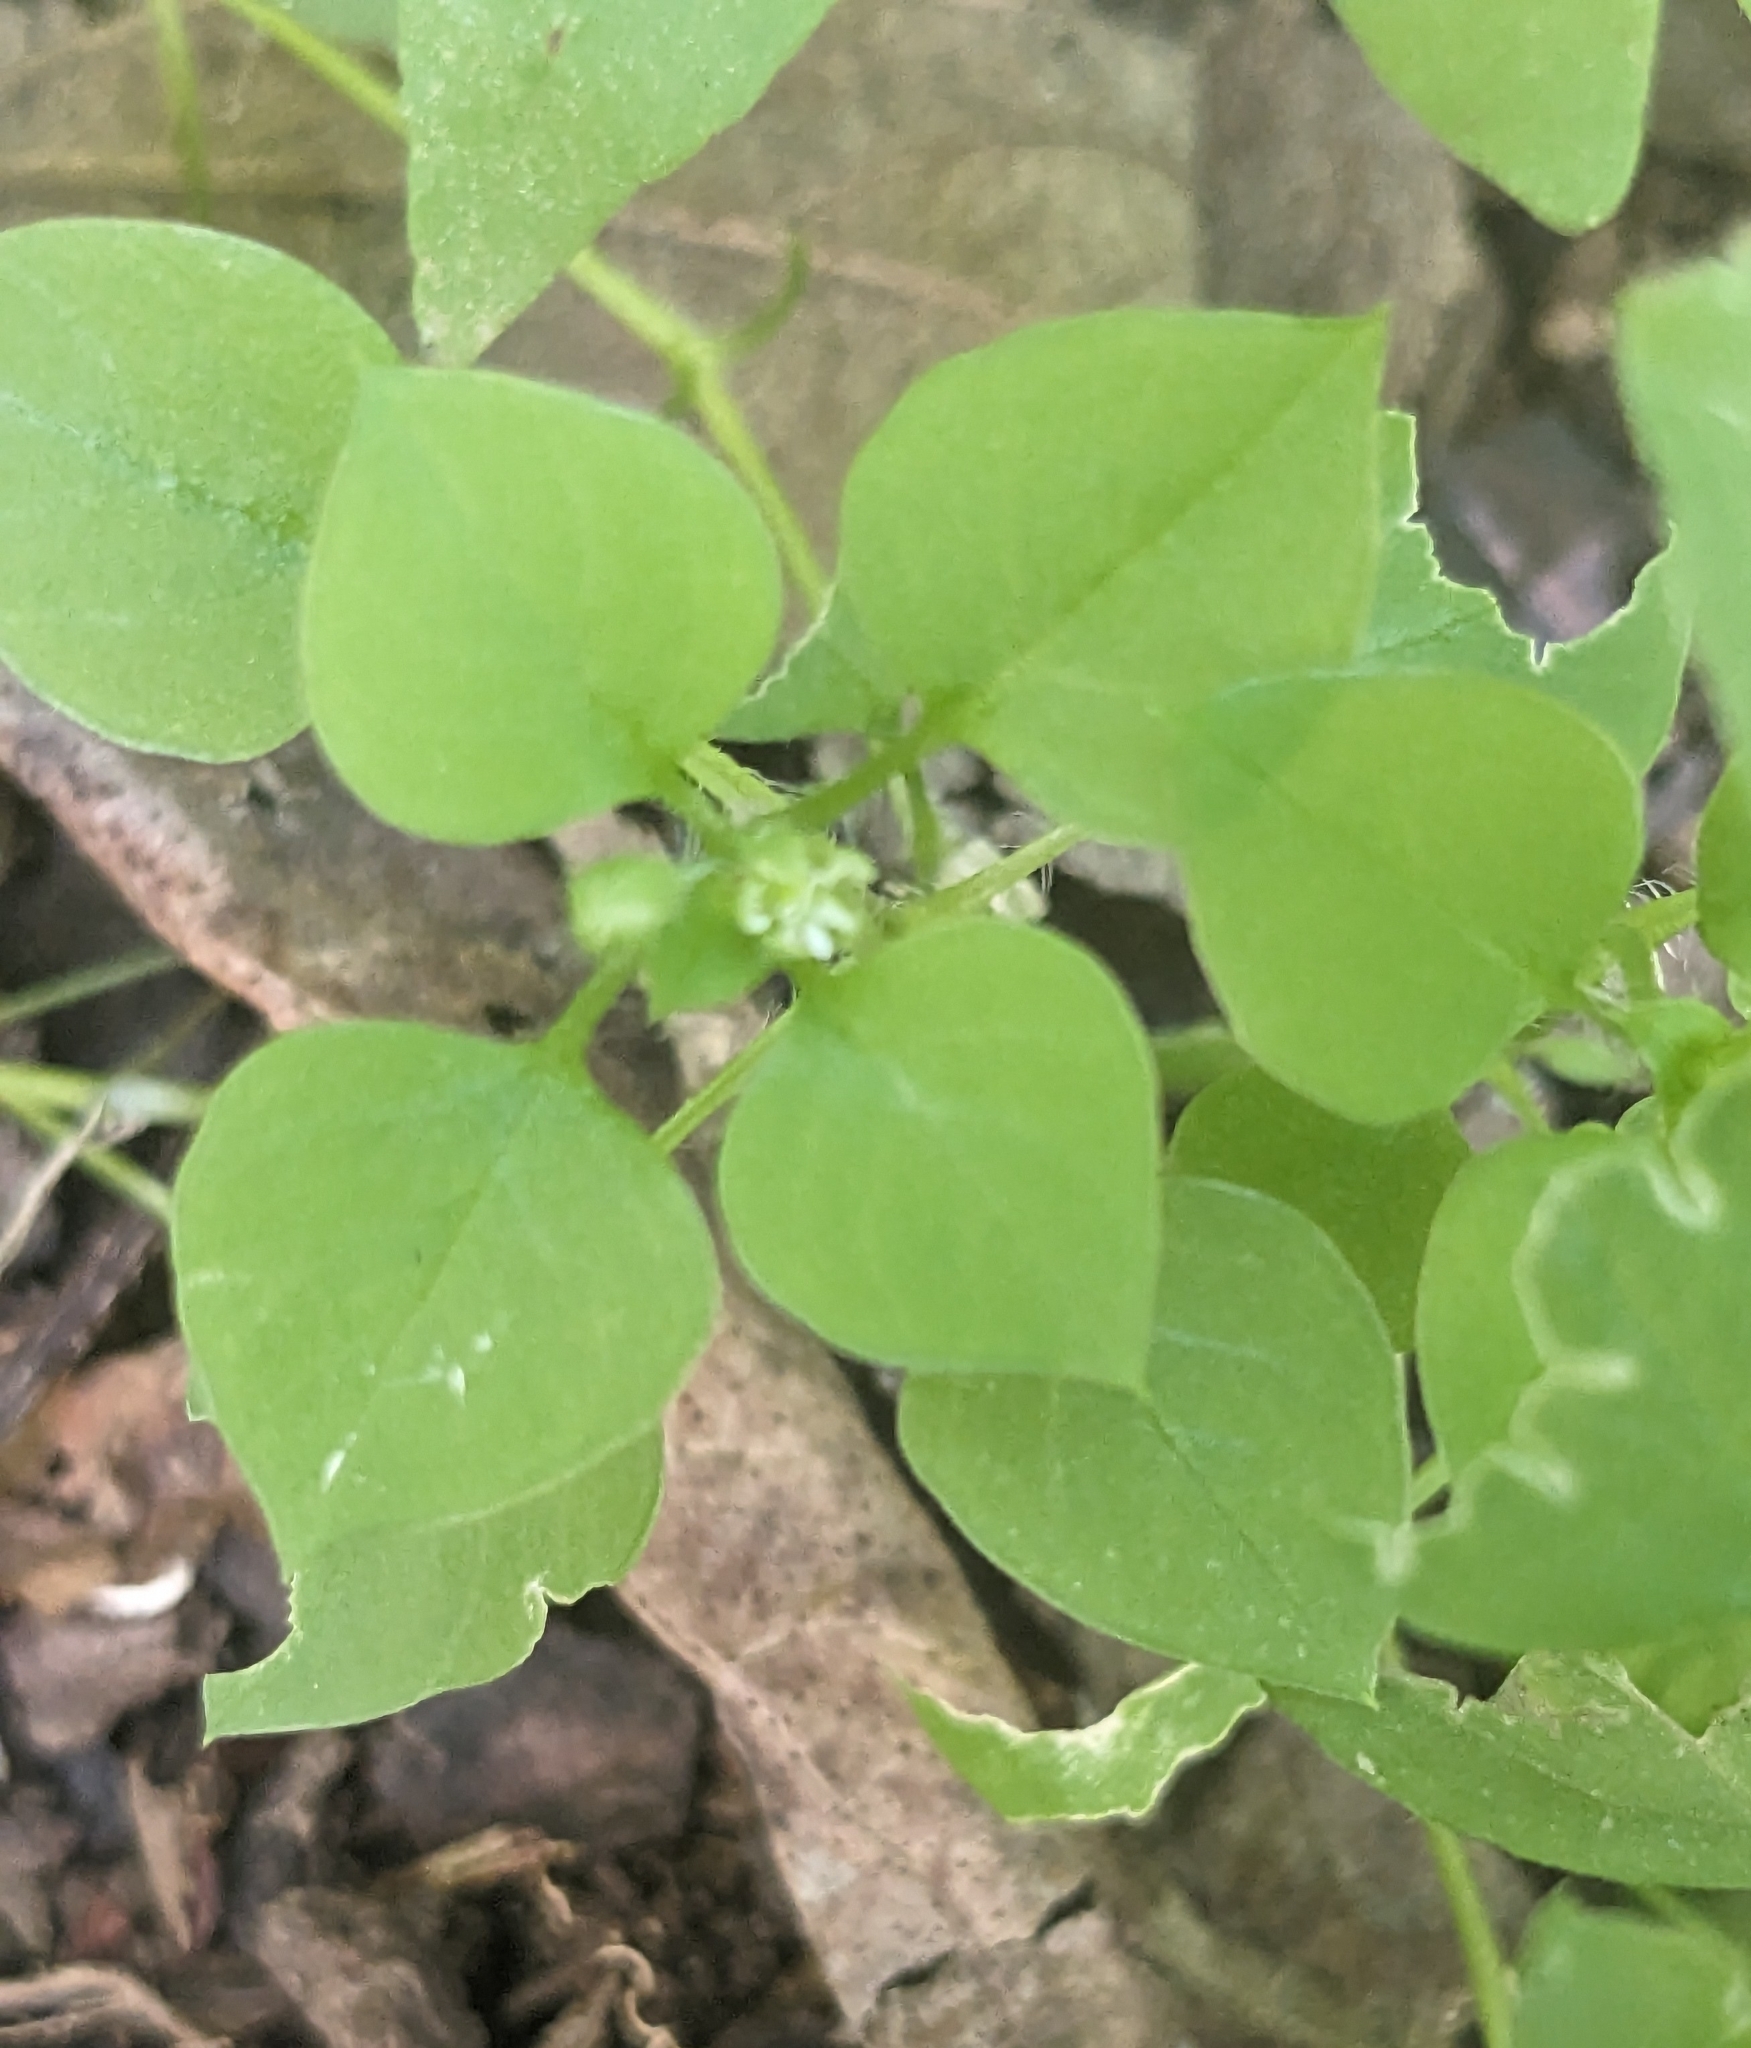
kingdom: Plantae
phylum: Tracheophyta
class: Magnoliopsida
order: Caryophyllales
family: Caryophyllaceae
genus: Stellaria
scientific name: Stellaria media
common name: Common chickweed
